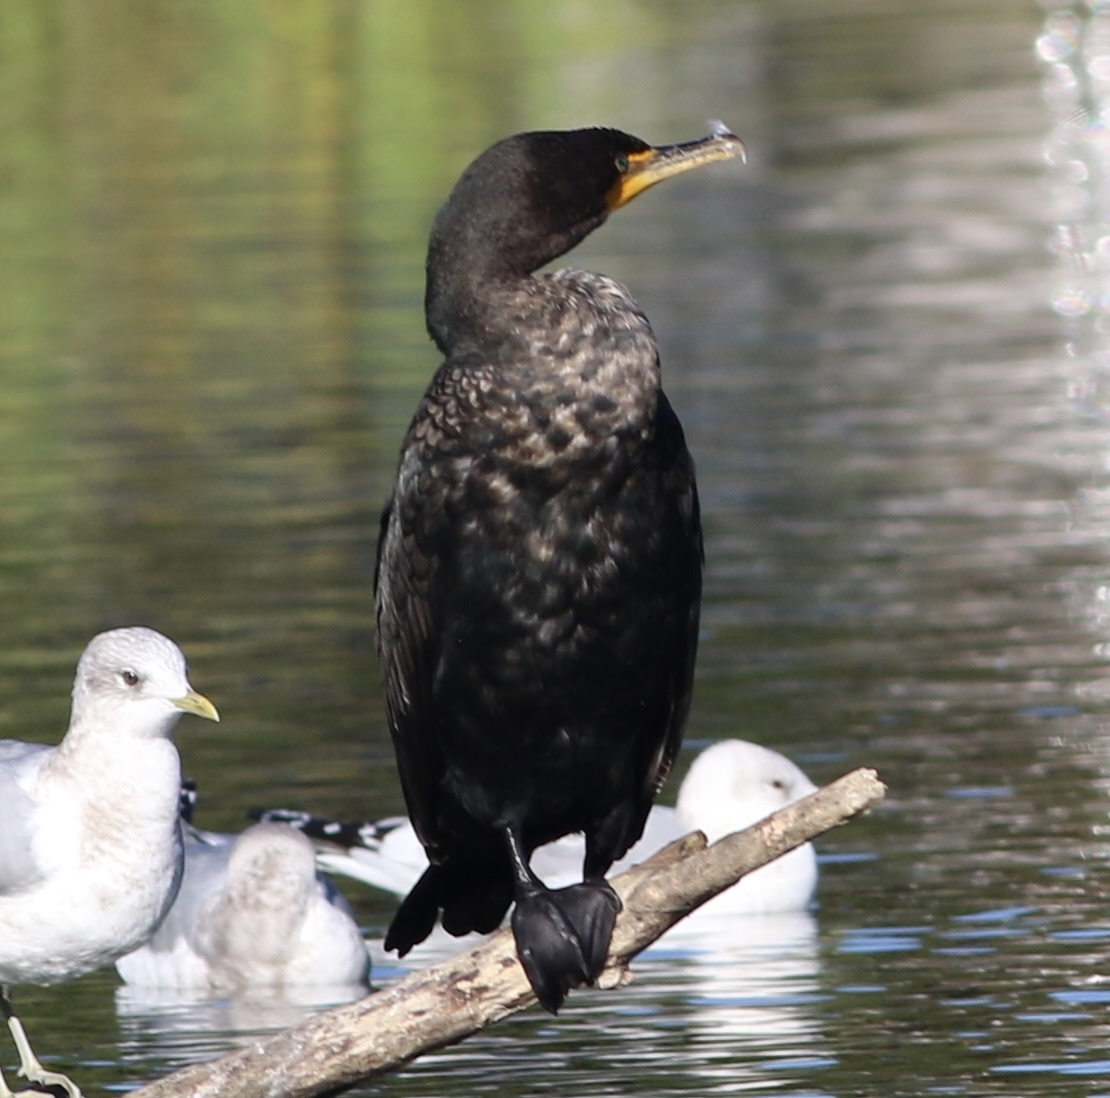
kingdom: Animalia
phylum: Chordata
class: Aves
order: Suliformes
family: Phalacrocoracidae
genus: Phalacrocorax
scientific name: Phalacrocorax auritus
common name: Double-crested cormorant
